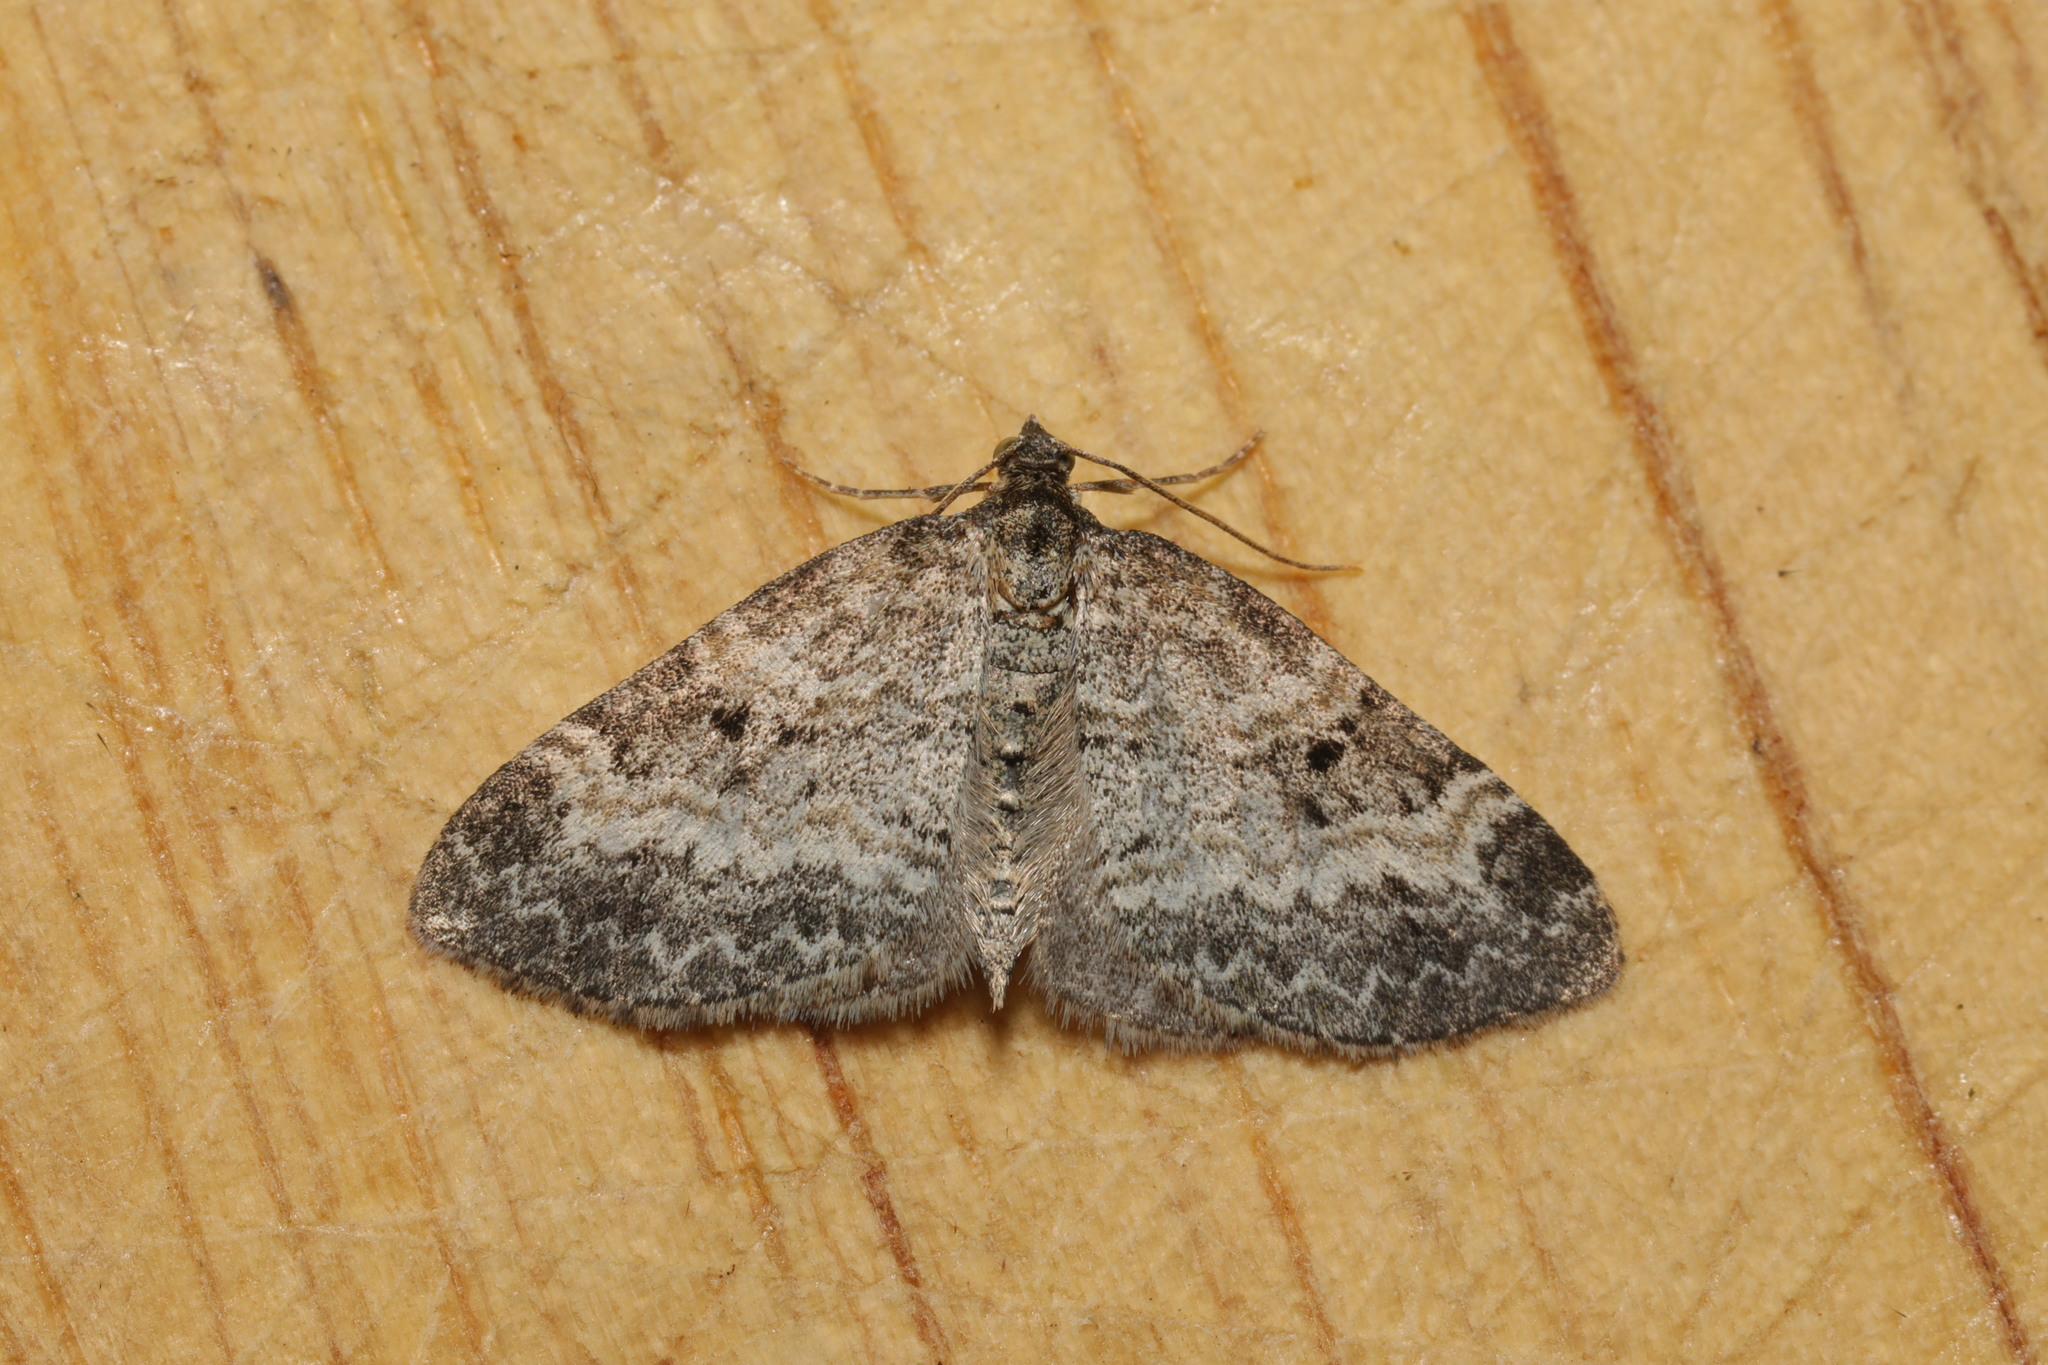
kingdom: Animalia
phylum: Arthropoda
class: Insecta
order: Lepidoptera
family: Geometridae
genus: Pterapherapteryx
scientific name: Pterapherapteryx sexalata
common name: Small seraphim
